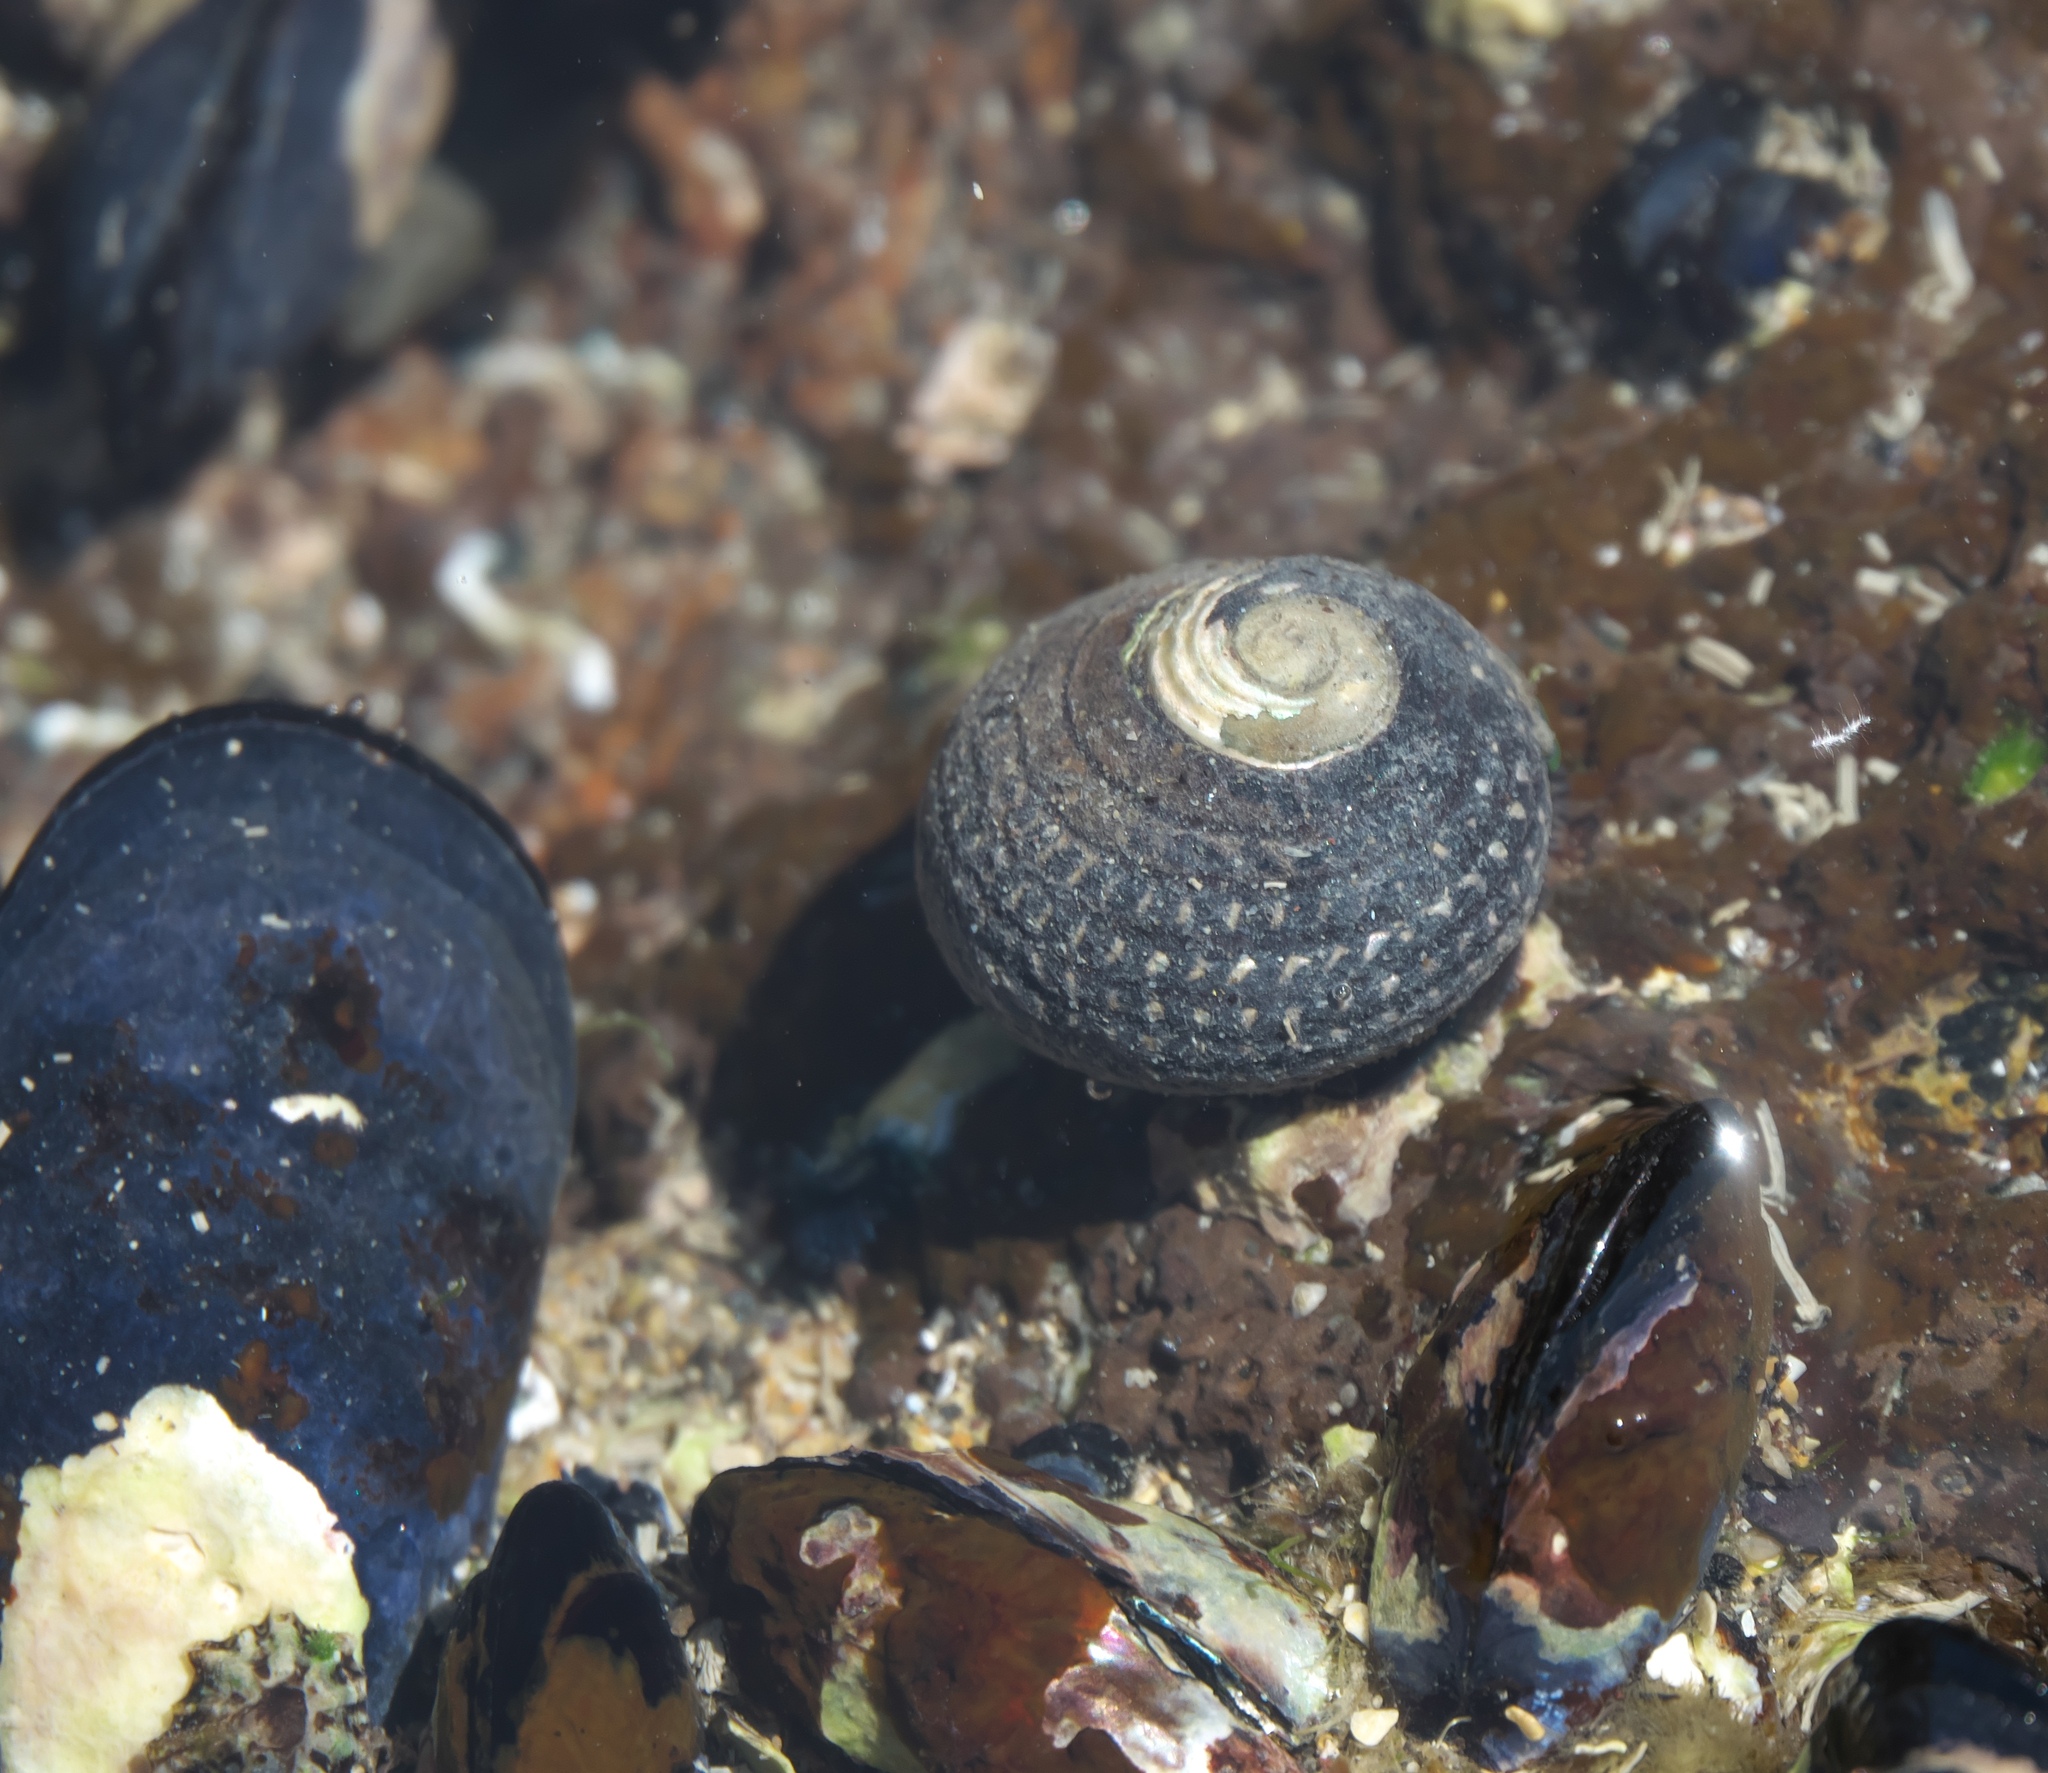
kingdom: Animalia
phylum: Mollusca
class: Gastropoda
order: Trochida
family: Trochidae
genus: Diloma
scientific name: Diloma aethiops
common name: Scorched monodont
